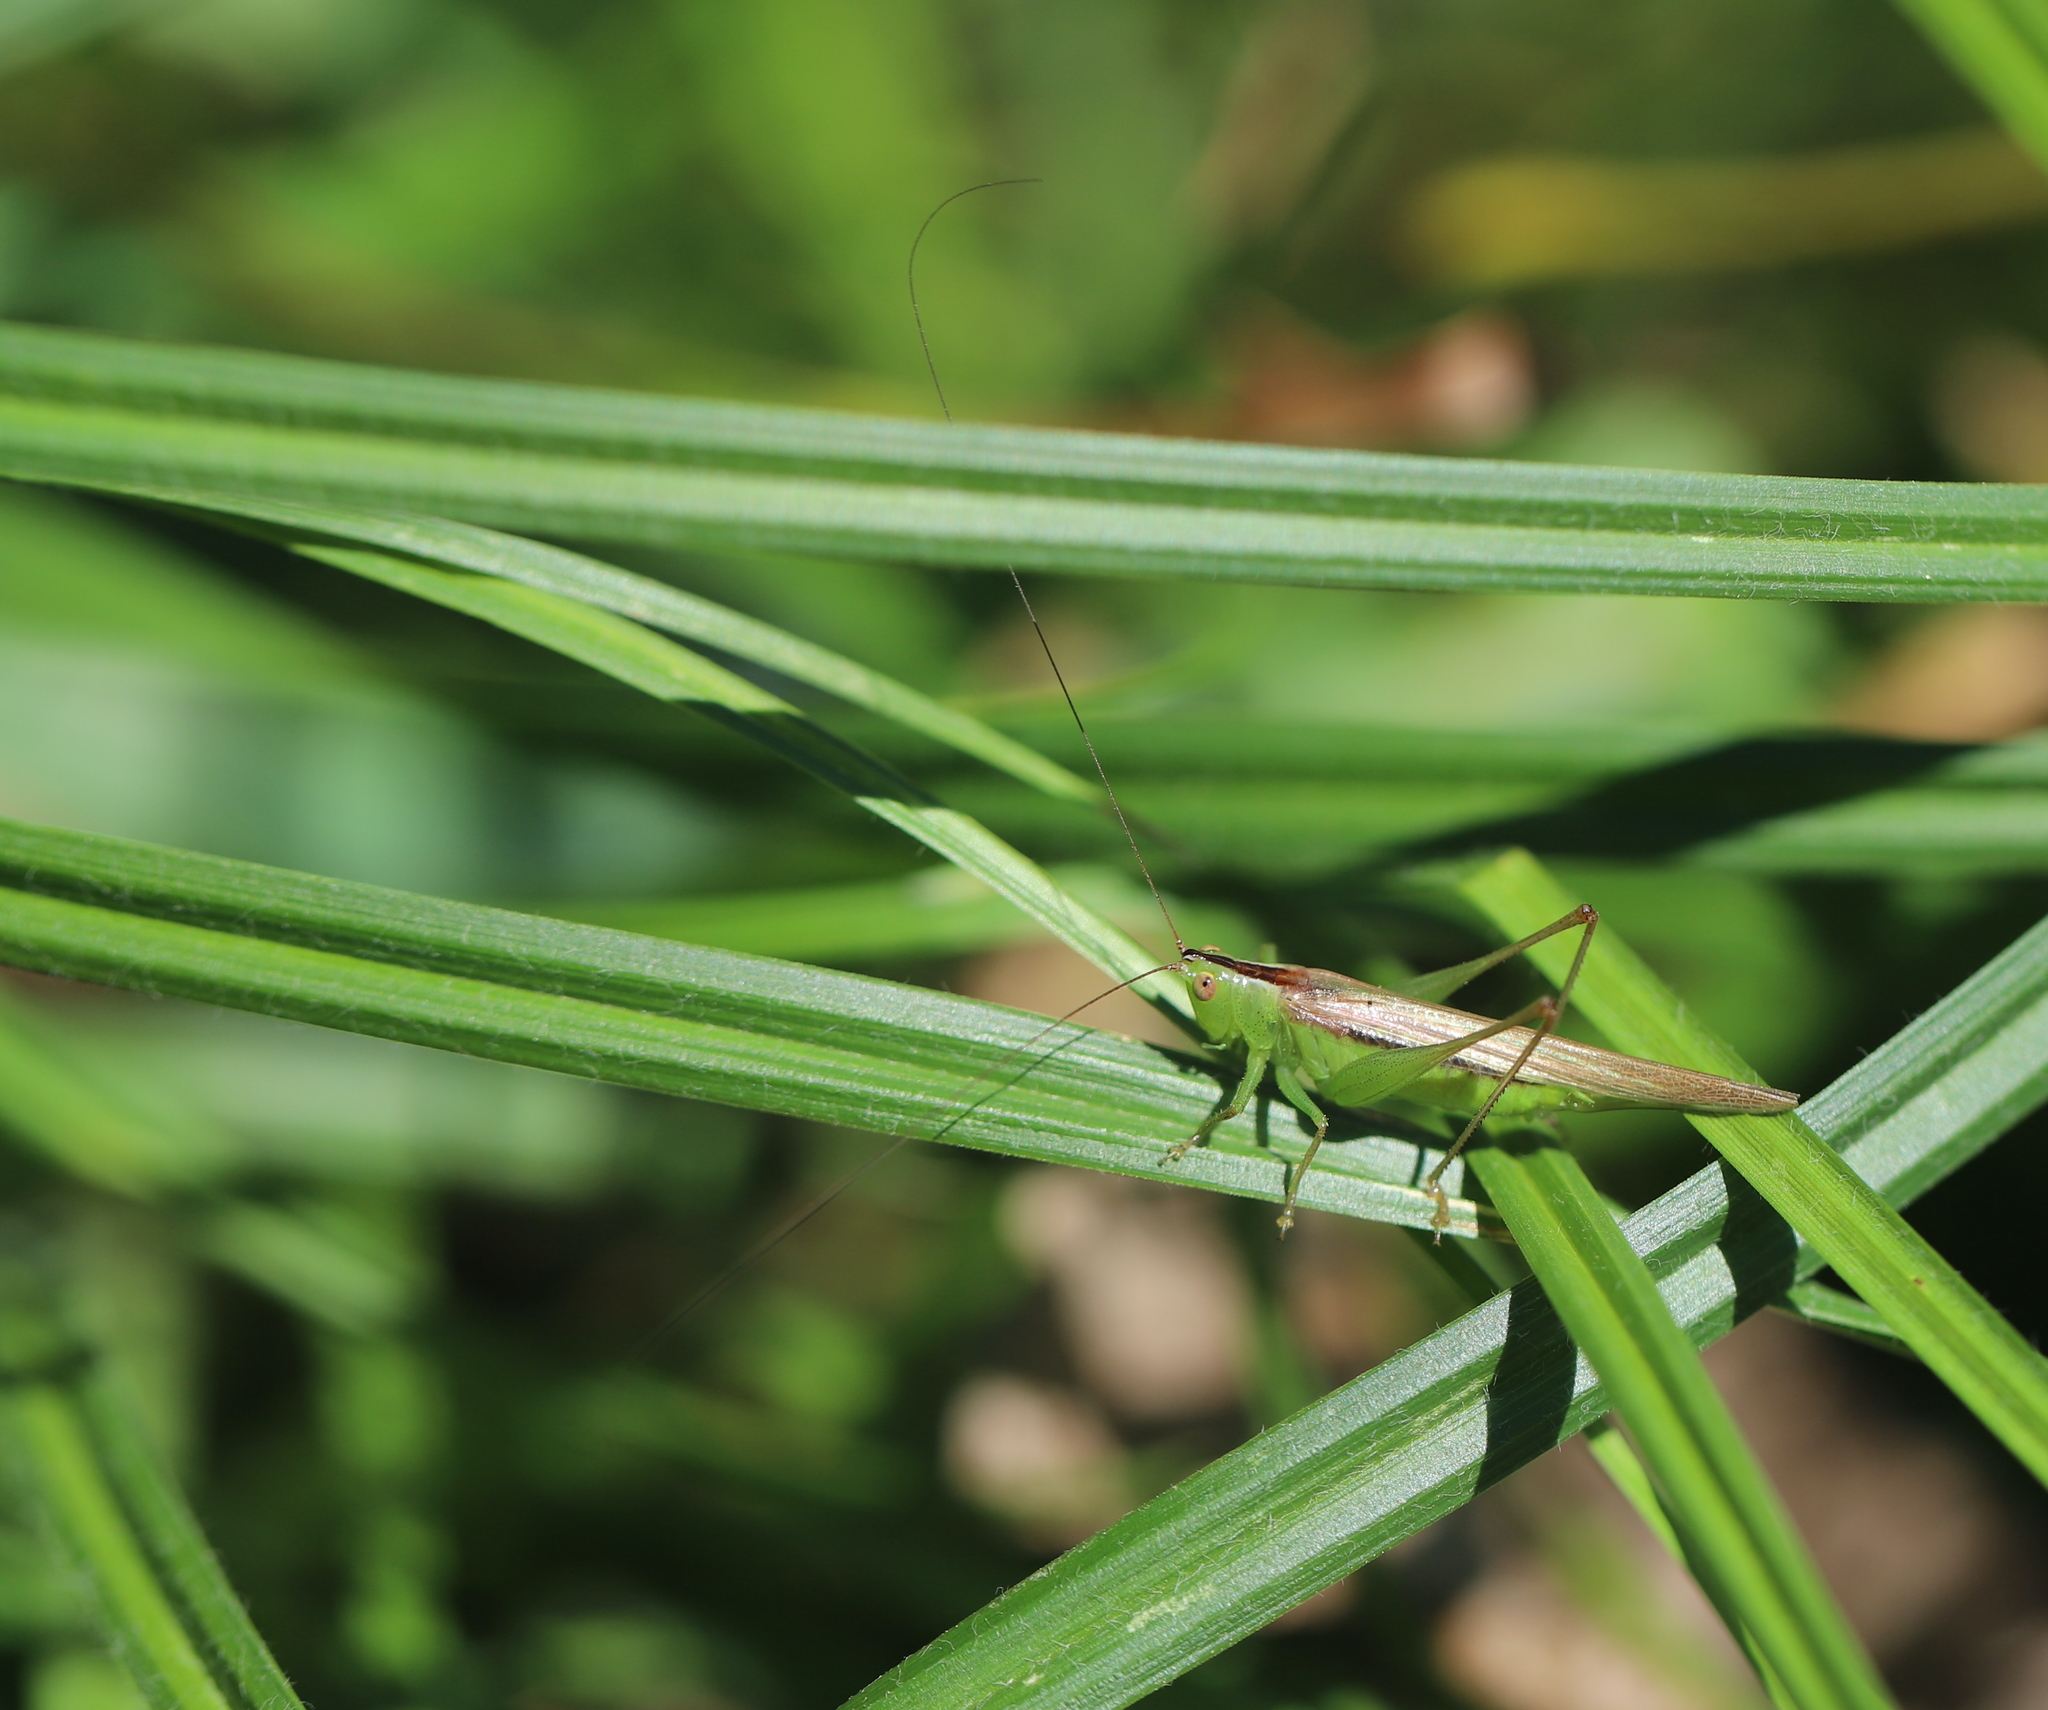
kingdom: Animalia
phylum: Arthropoda
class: Insecta
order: Orthoptera
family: Tettigoniidae
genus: Conocephalus
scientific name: Conocephalus fasciatus
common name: Slender meadow katydid
